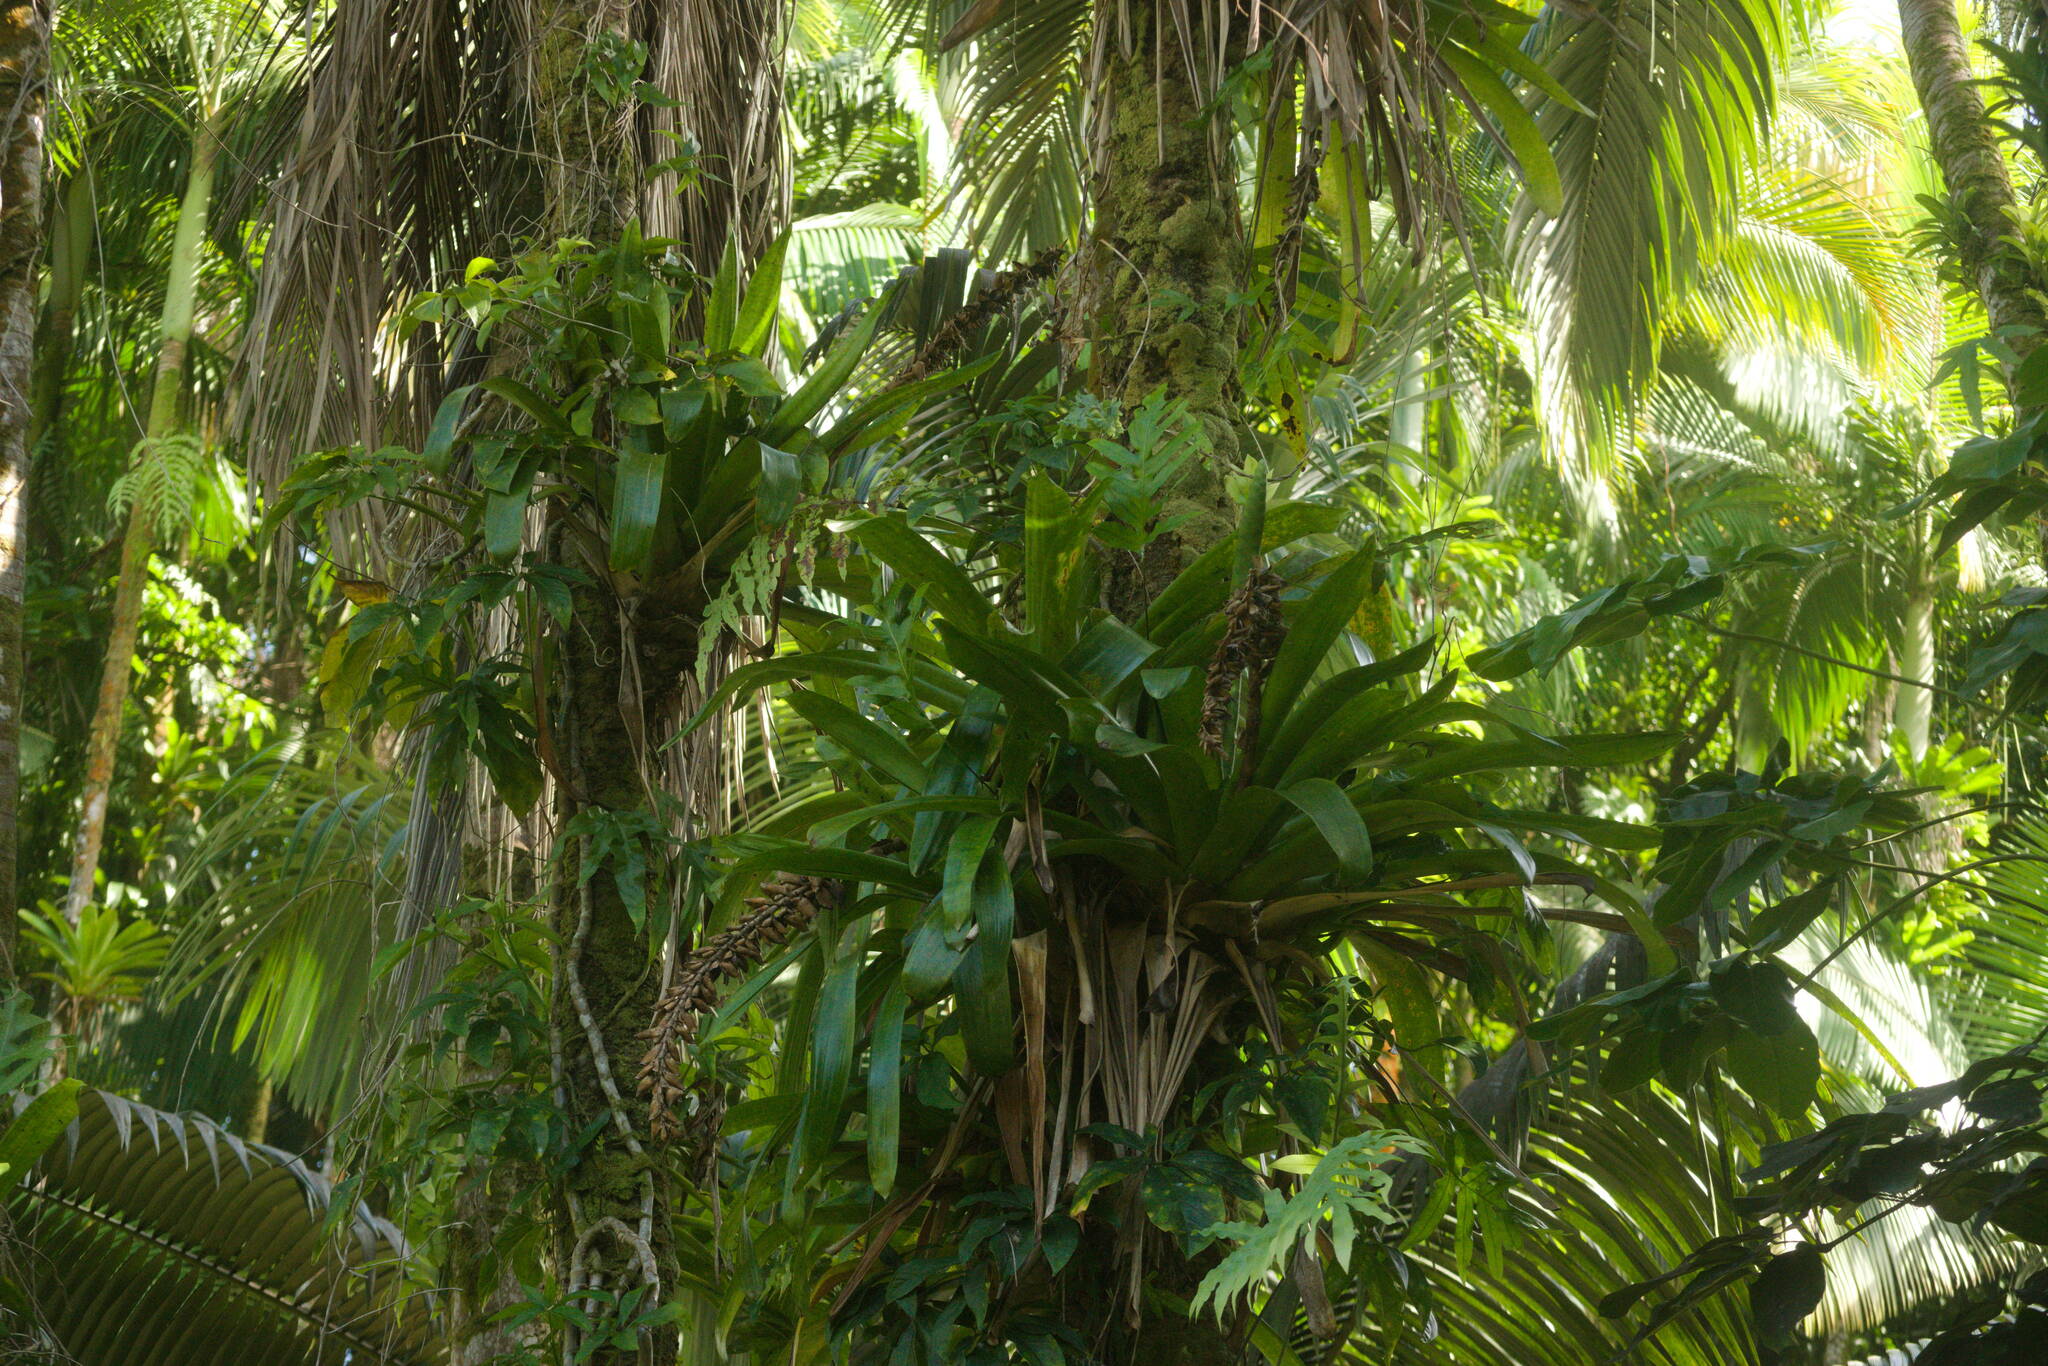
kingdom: Plantae
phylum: Tracheophyta
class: Liliopsida
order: Poales
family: Bromeliaceae
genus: Guzmania
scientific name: Guzmania monostachia
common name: West indian tufted airplant
